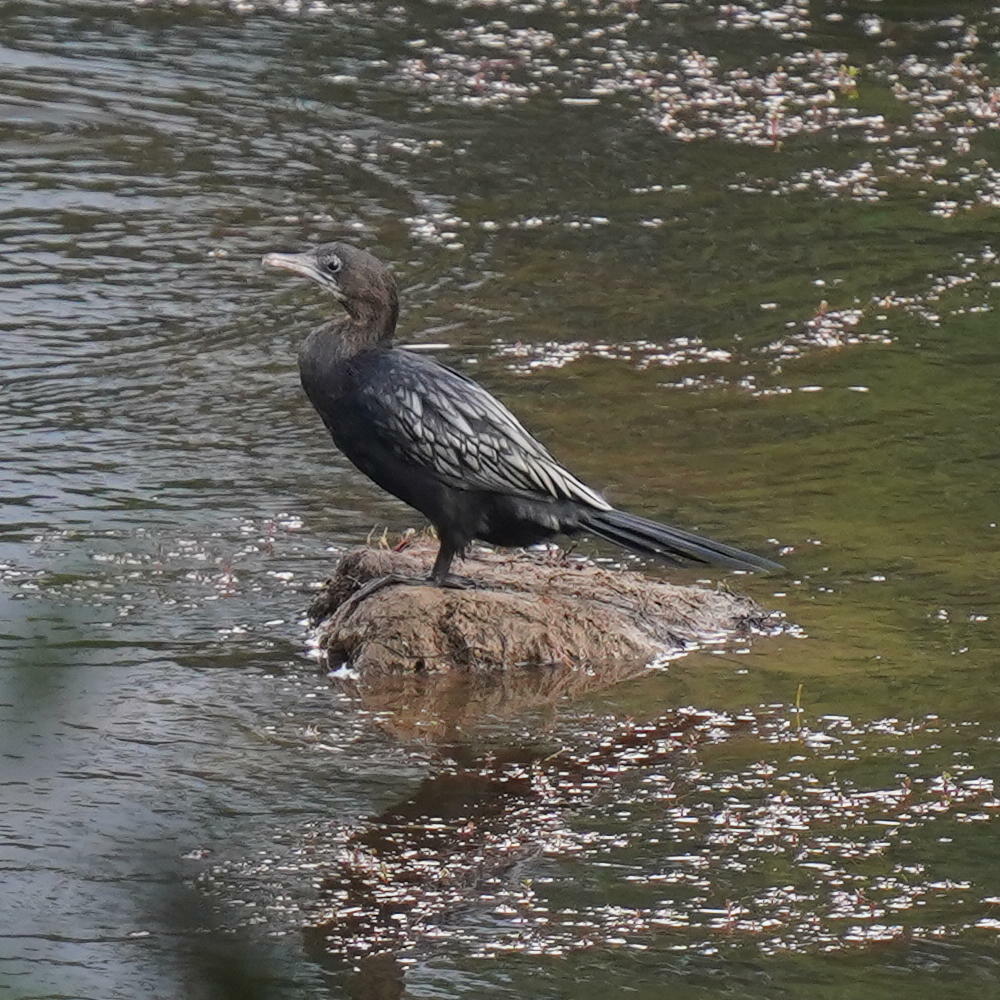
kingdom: Animalia
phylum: Chordata
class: Aves
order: Suliformes
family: Phalacrocoracidae
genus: Microcarbo
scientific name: Microcarbo niger
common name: Little cormorant
